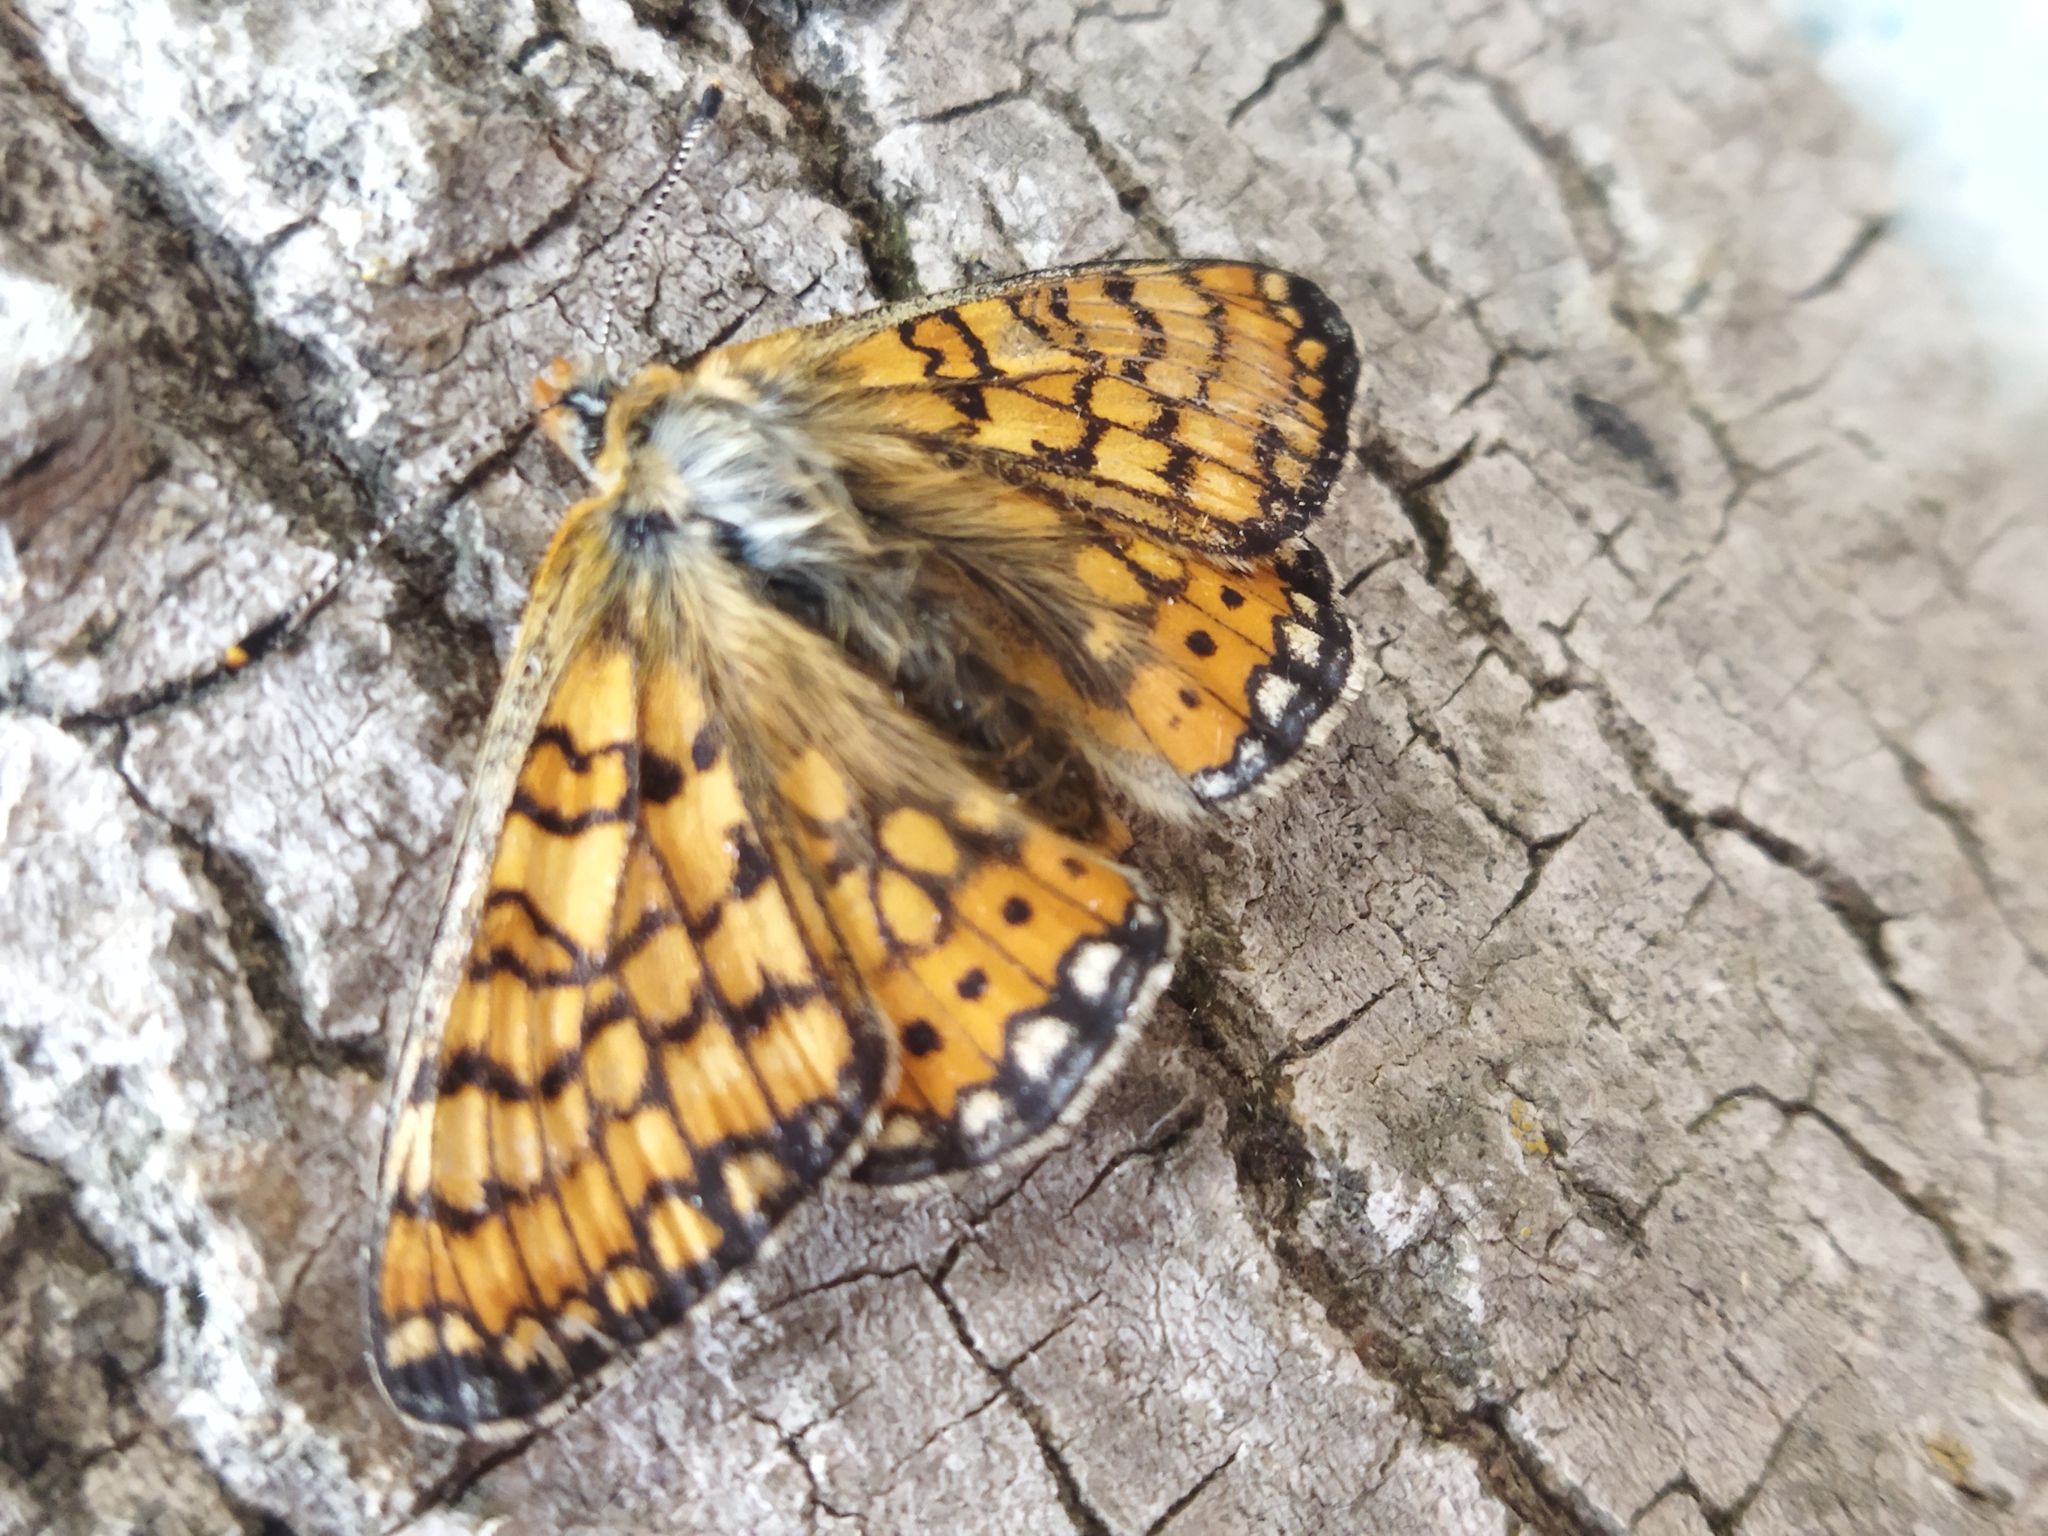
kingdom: Animalia
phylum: Arthropoda
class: Insecta
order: Lepidoptera
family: Nymphalidae
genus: Euphydryas
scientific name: Euphydryas aurinia
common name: Marsh fritillary
